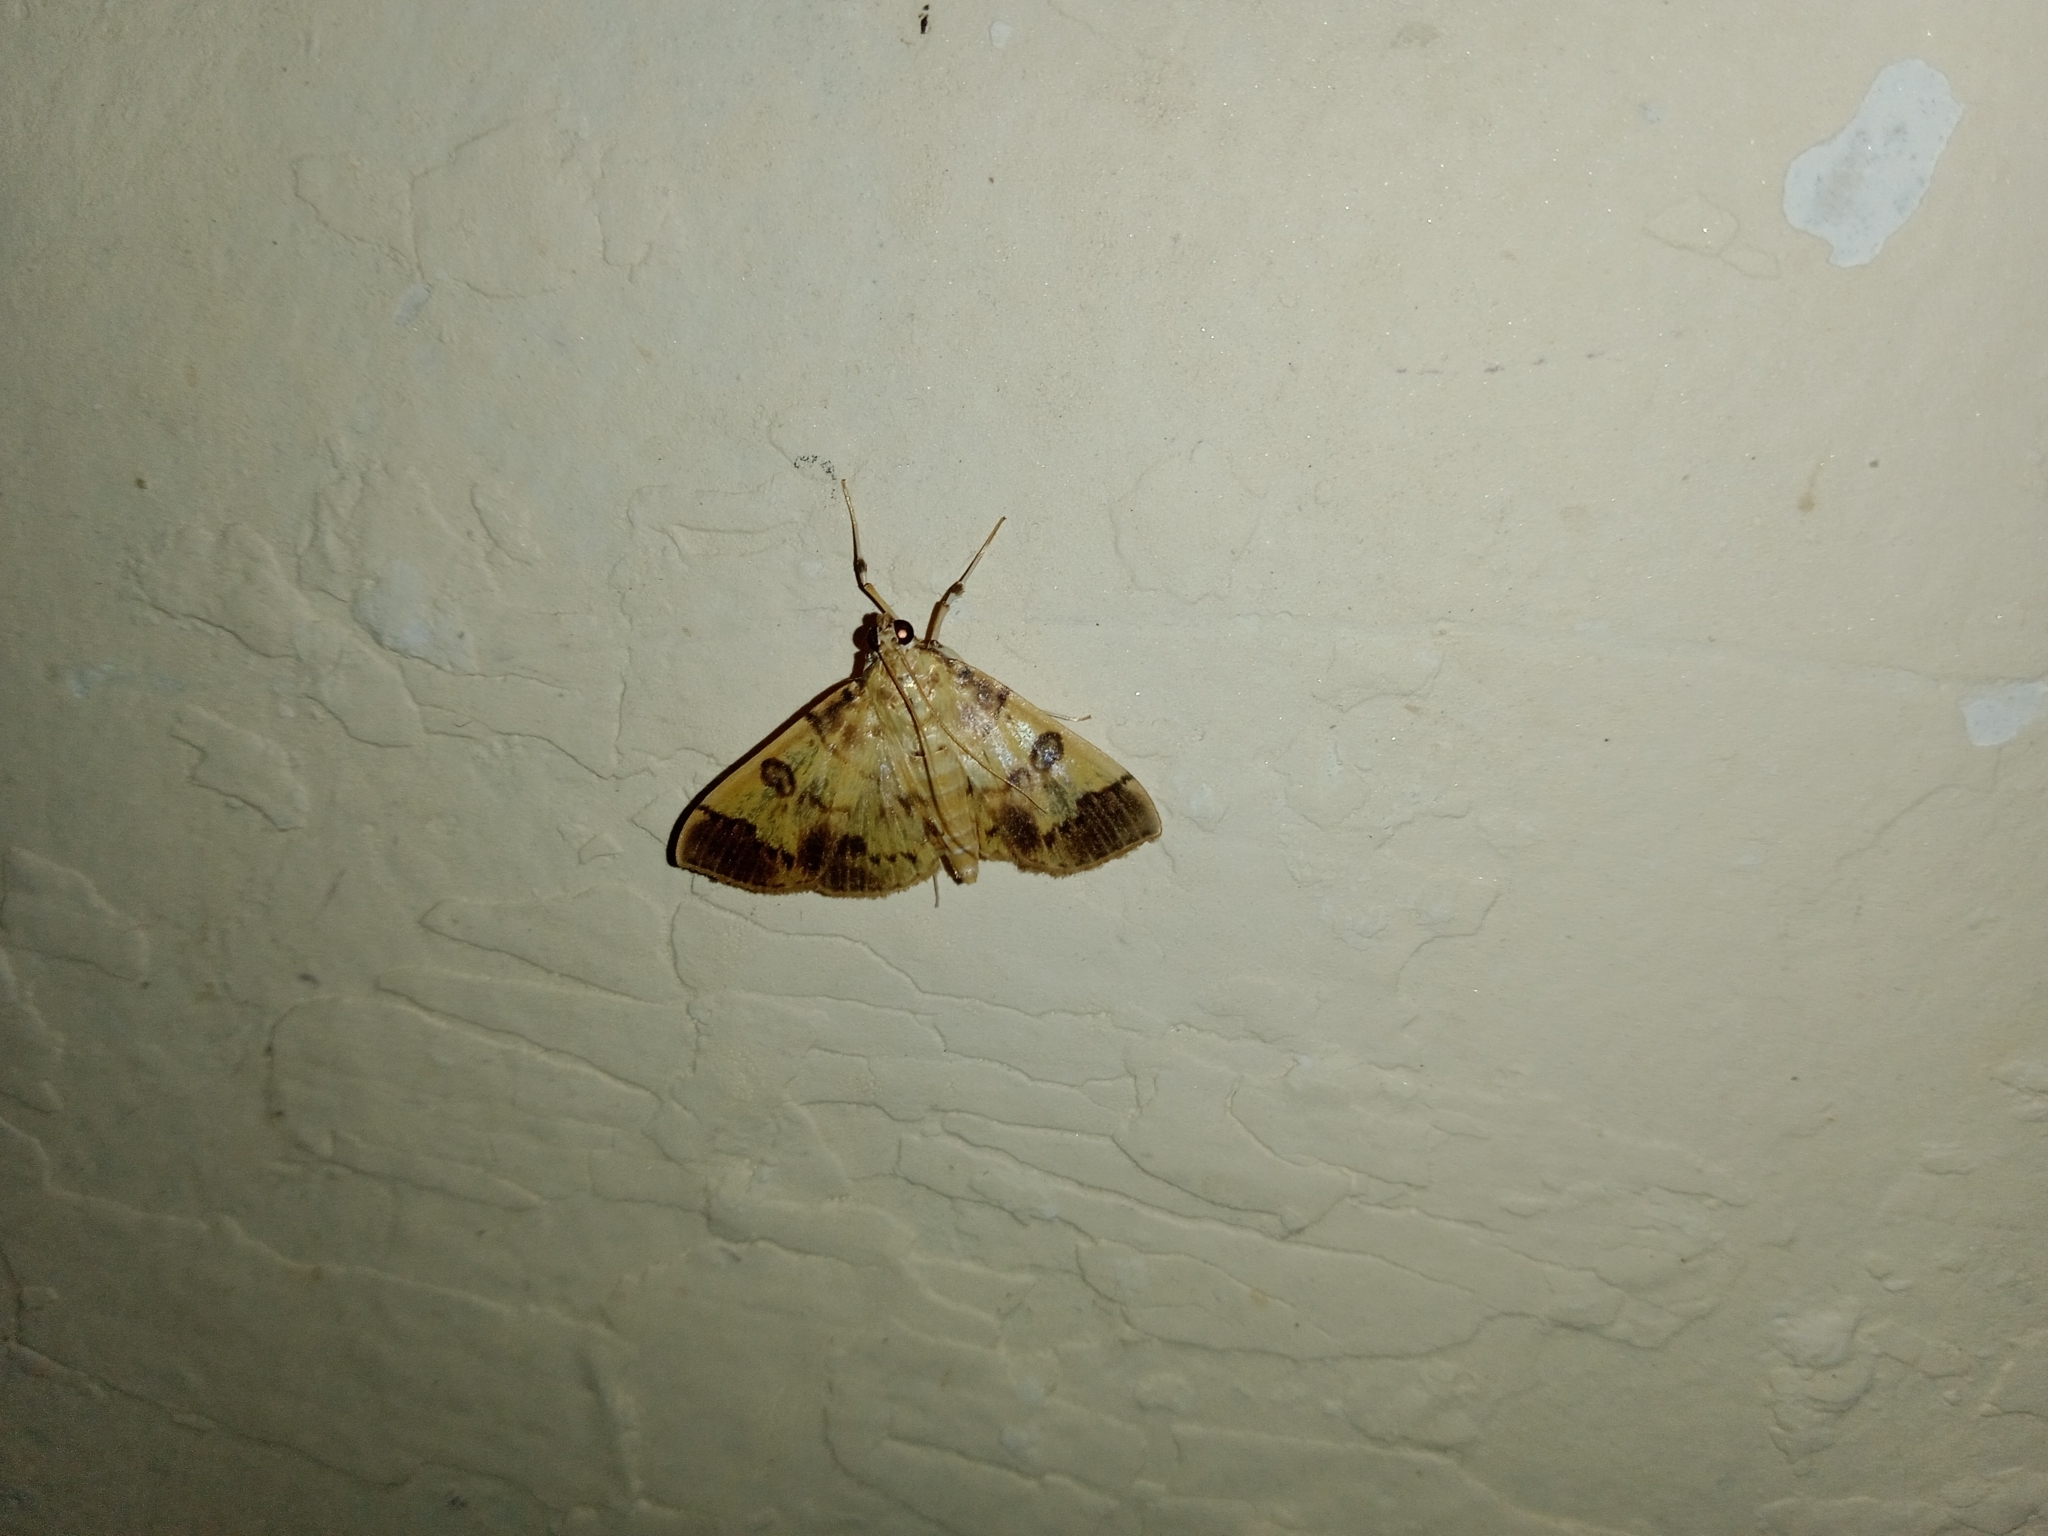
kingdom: Animalia
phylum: Arthropoda
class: Insecta
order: Lepidoptera
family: Crambidae
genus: Patania
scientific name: Patania iopasalis
